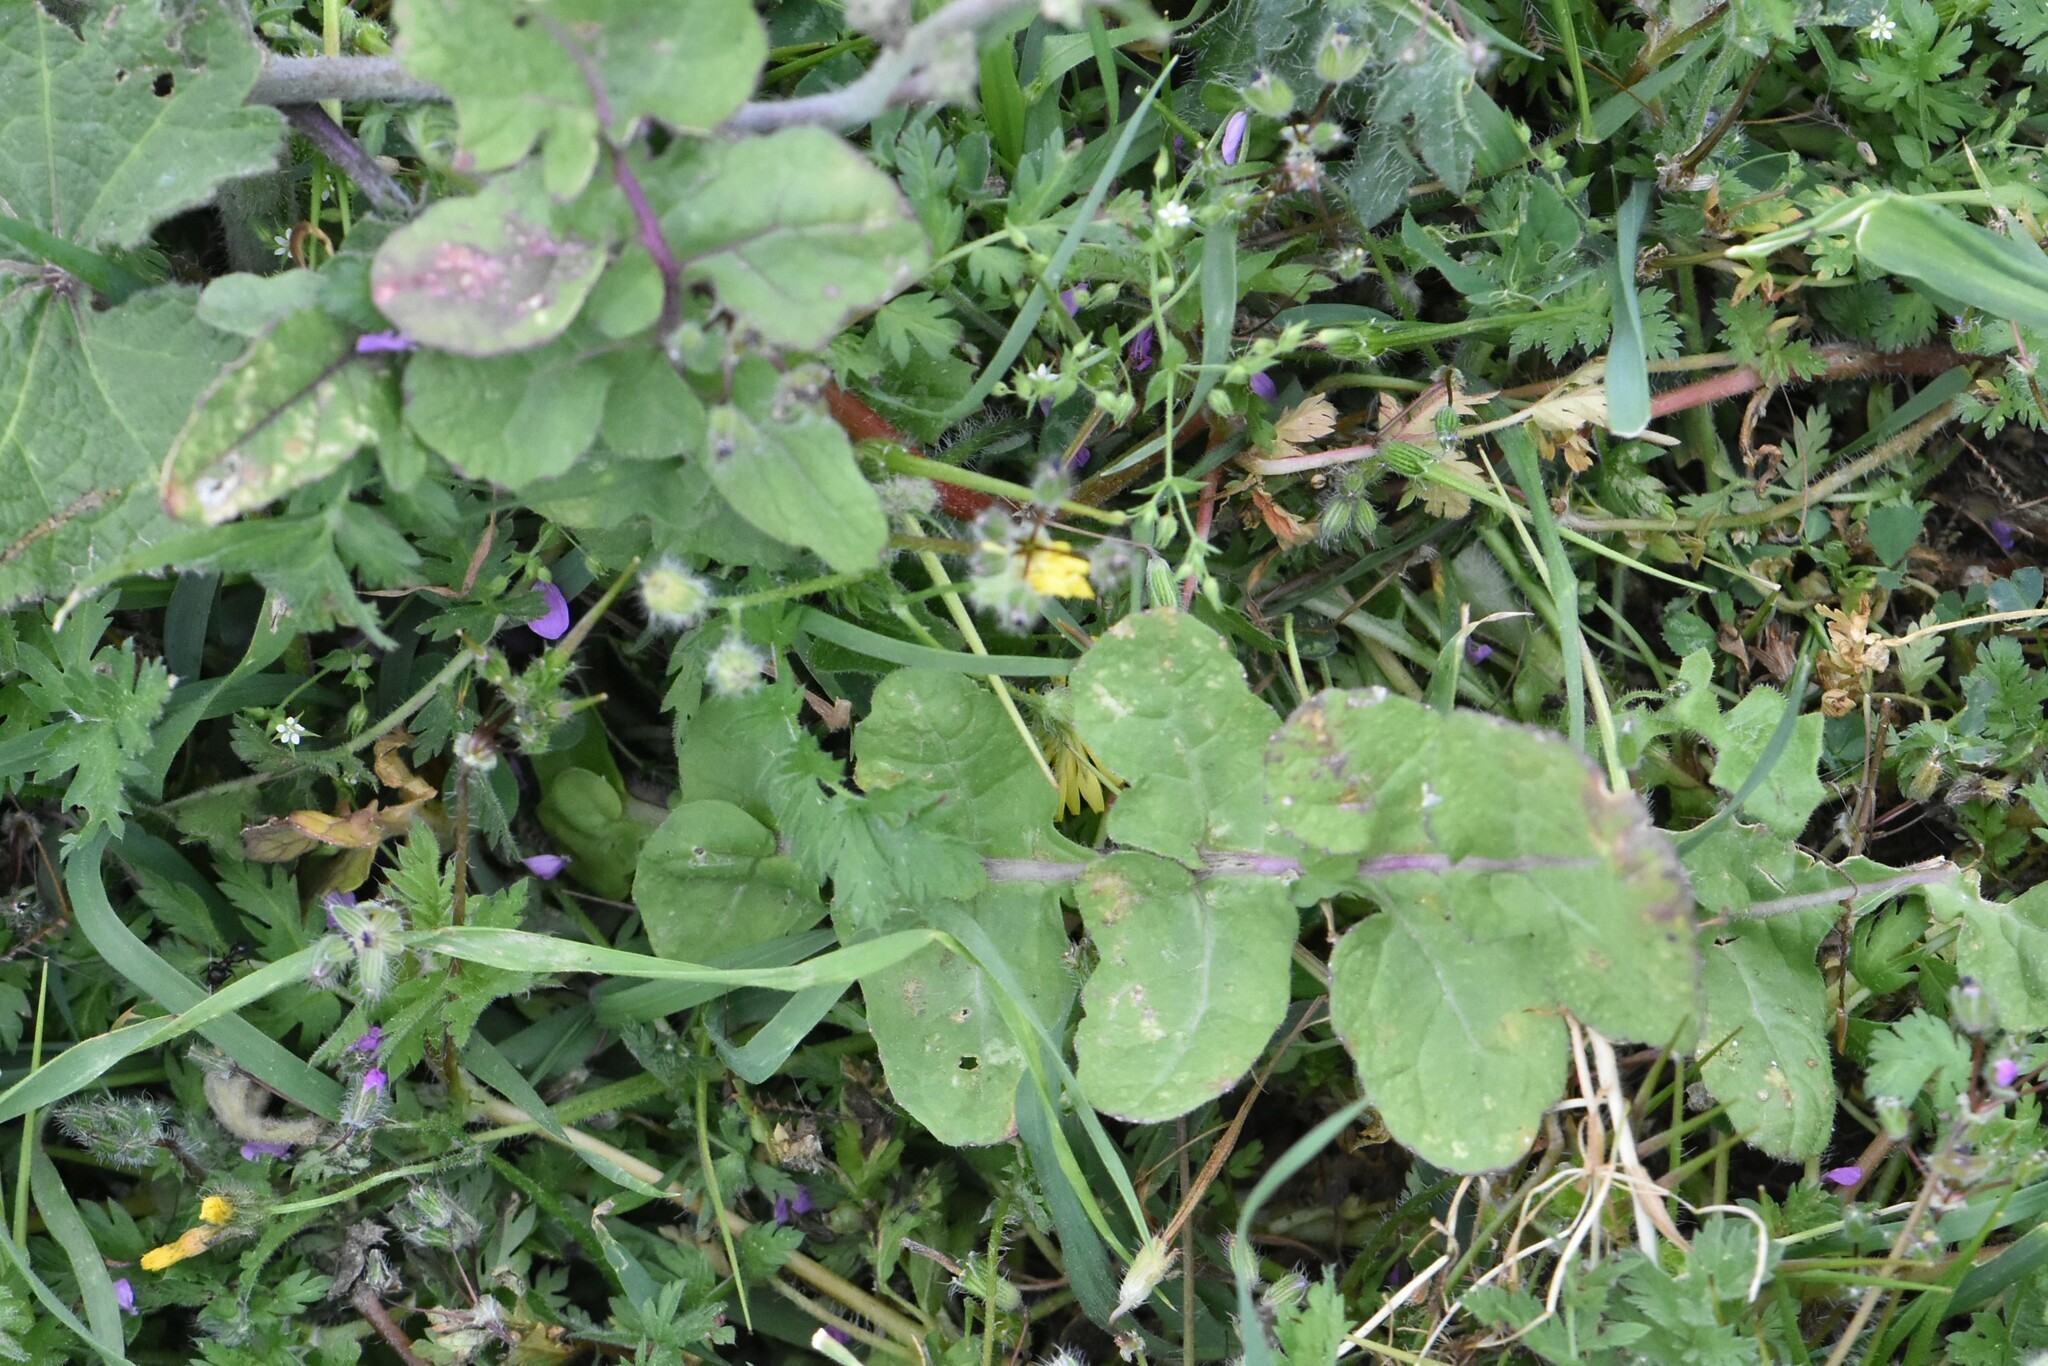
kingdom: Plantae
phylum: Tracheophyta
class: Magnoliopsida
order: Asterales
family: Asteraceae
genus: Sonchus
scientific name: Sonchus oleraceus
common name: Common sowthistle
